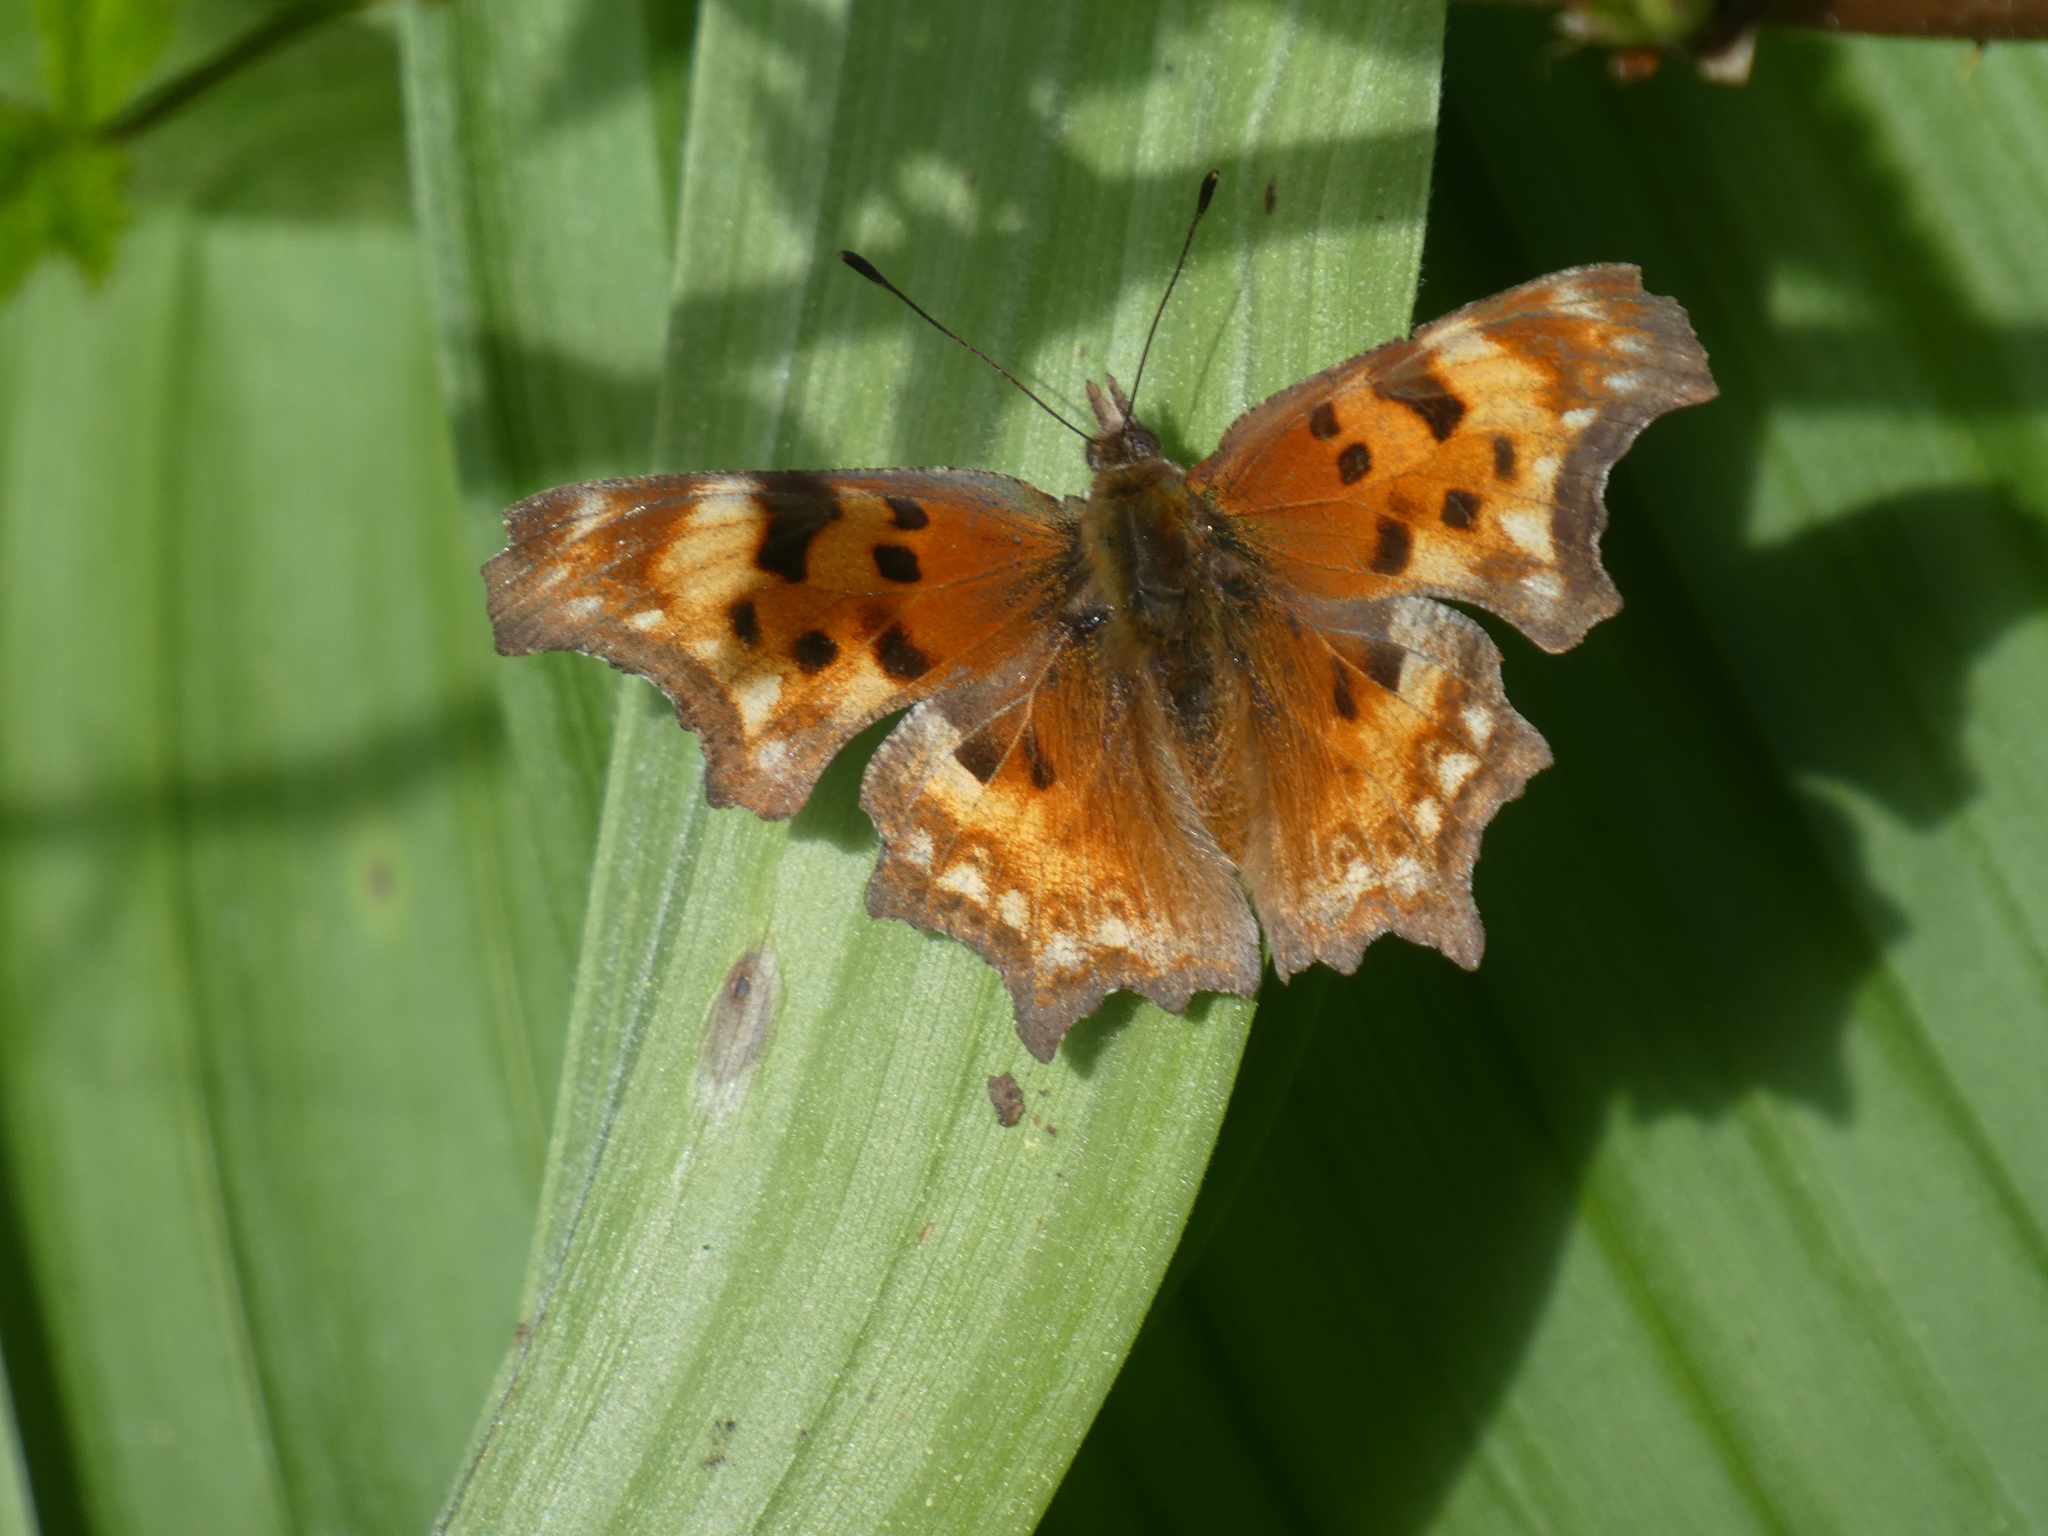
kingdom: Animalia
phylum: Arthropoda
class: Insecta
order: Lepidoptera
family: Nymphalidae
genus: Polygonia
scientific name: Polygonia gracilis
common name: Hoary comma
